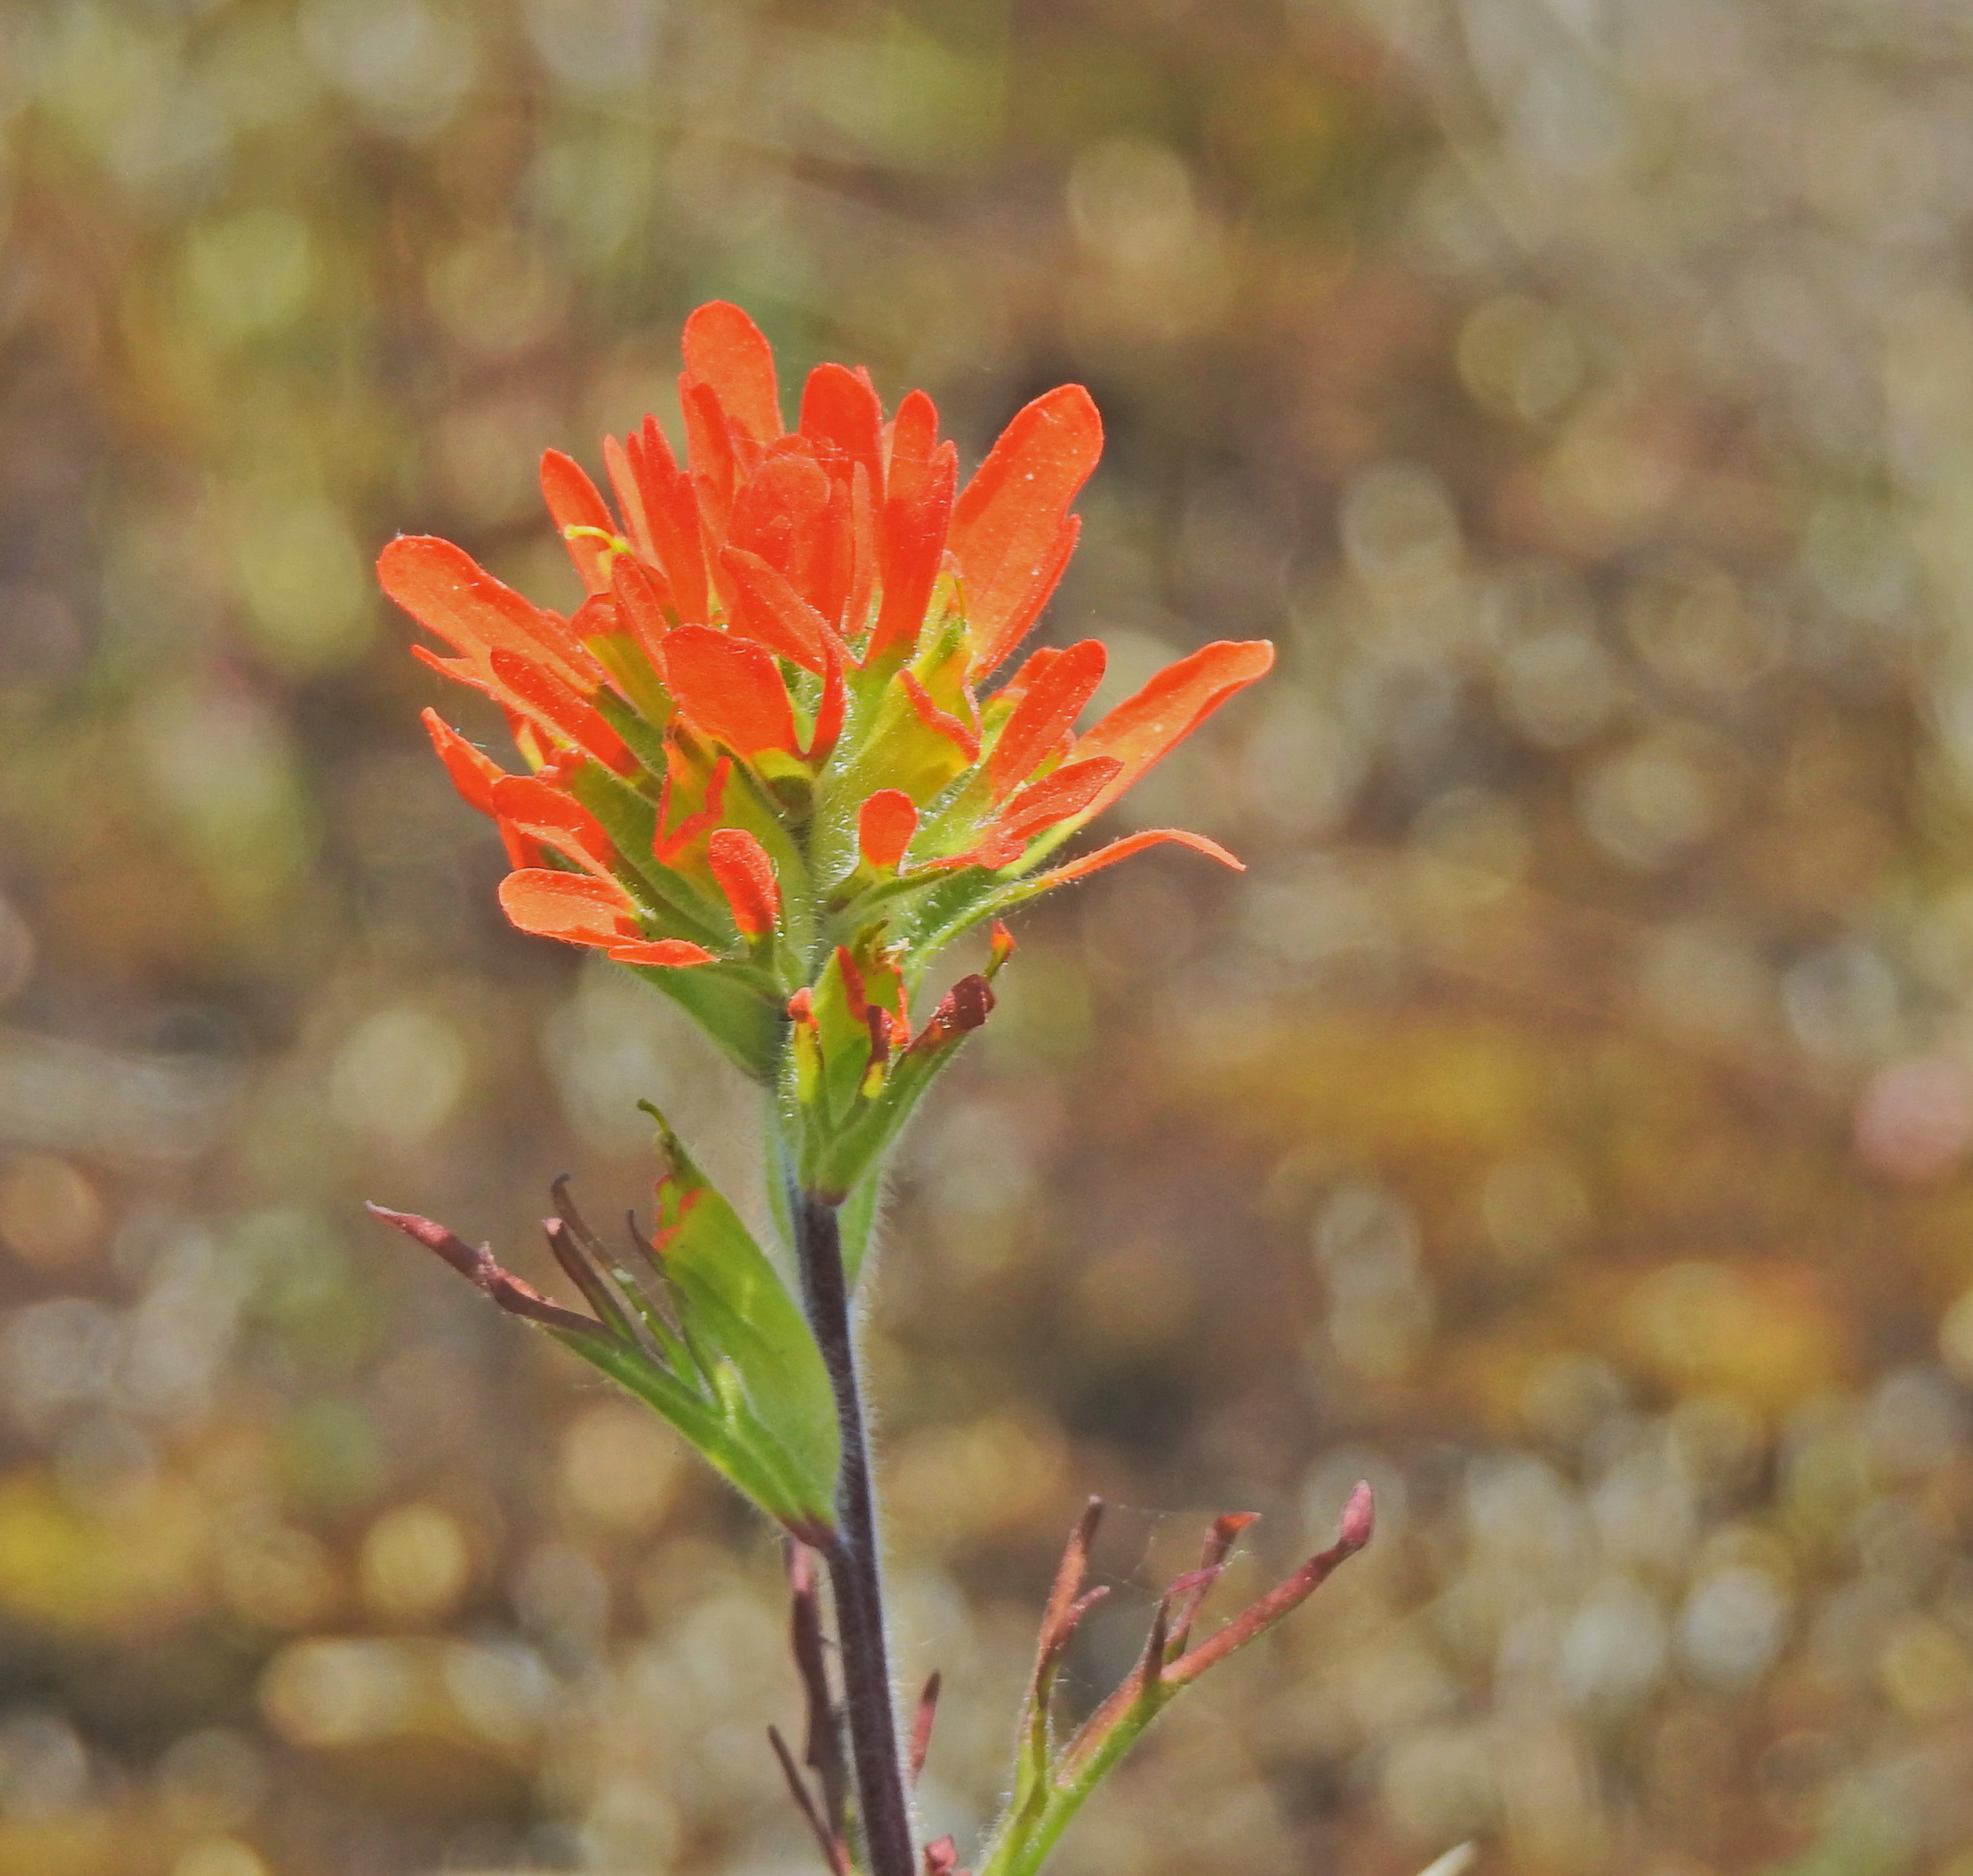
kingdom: Plantae
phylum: Tracheophyta
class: Magnoliopsida
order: Lamiales
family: Orobanchaceae
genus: Castilleja
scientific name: Castilleja coccinea
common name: Scarlet paintbrush
